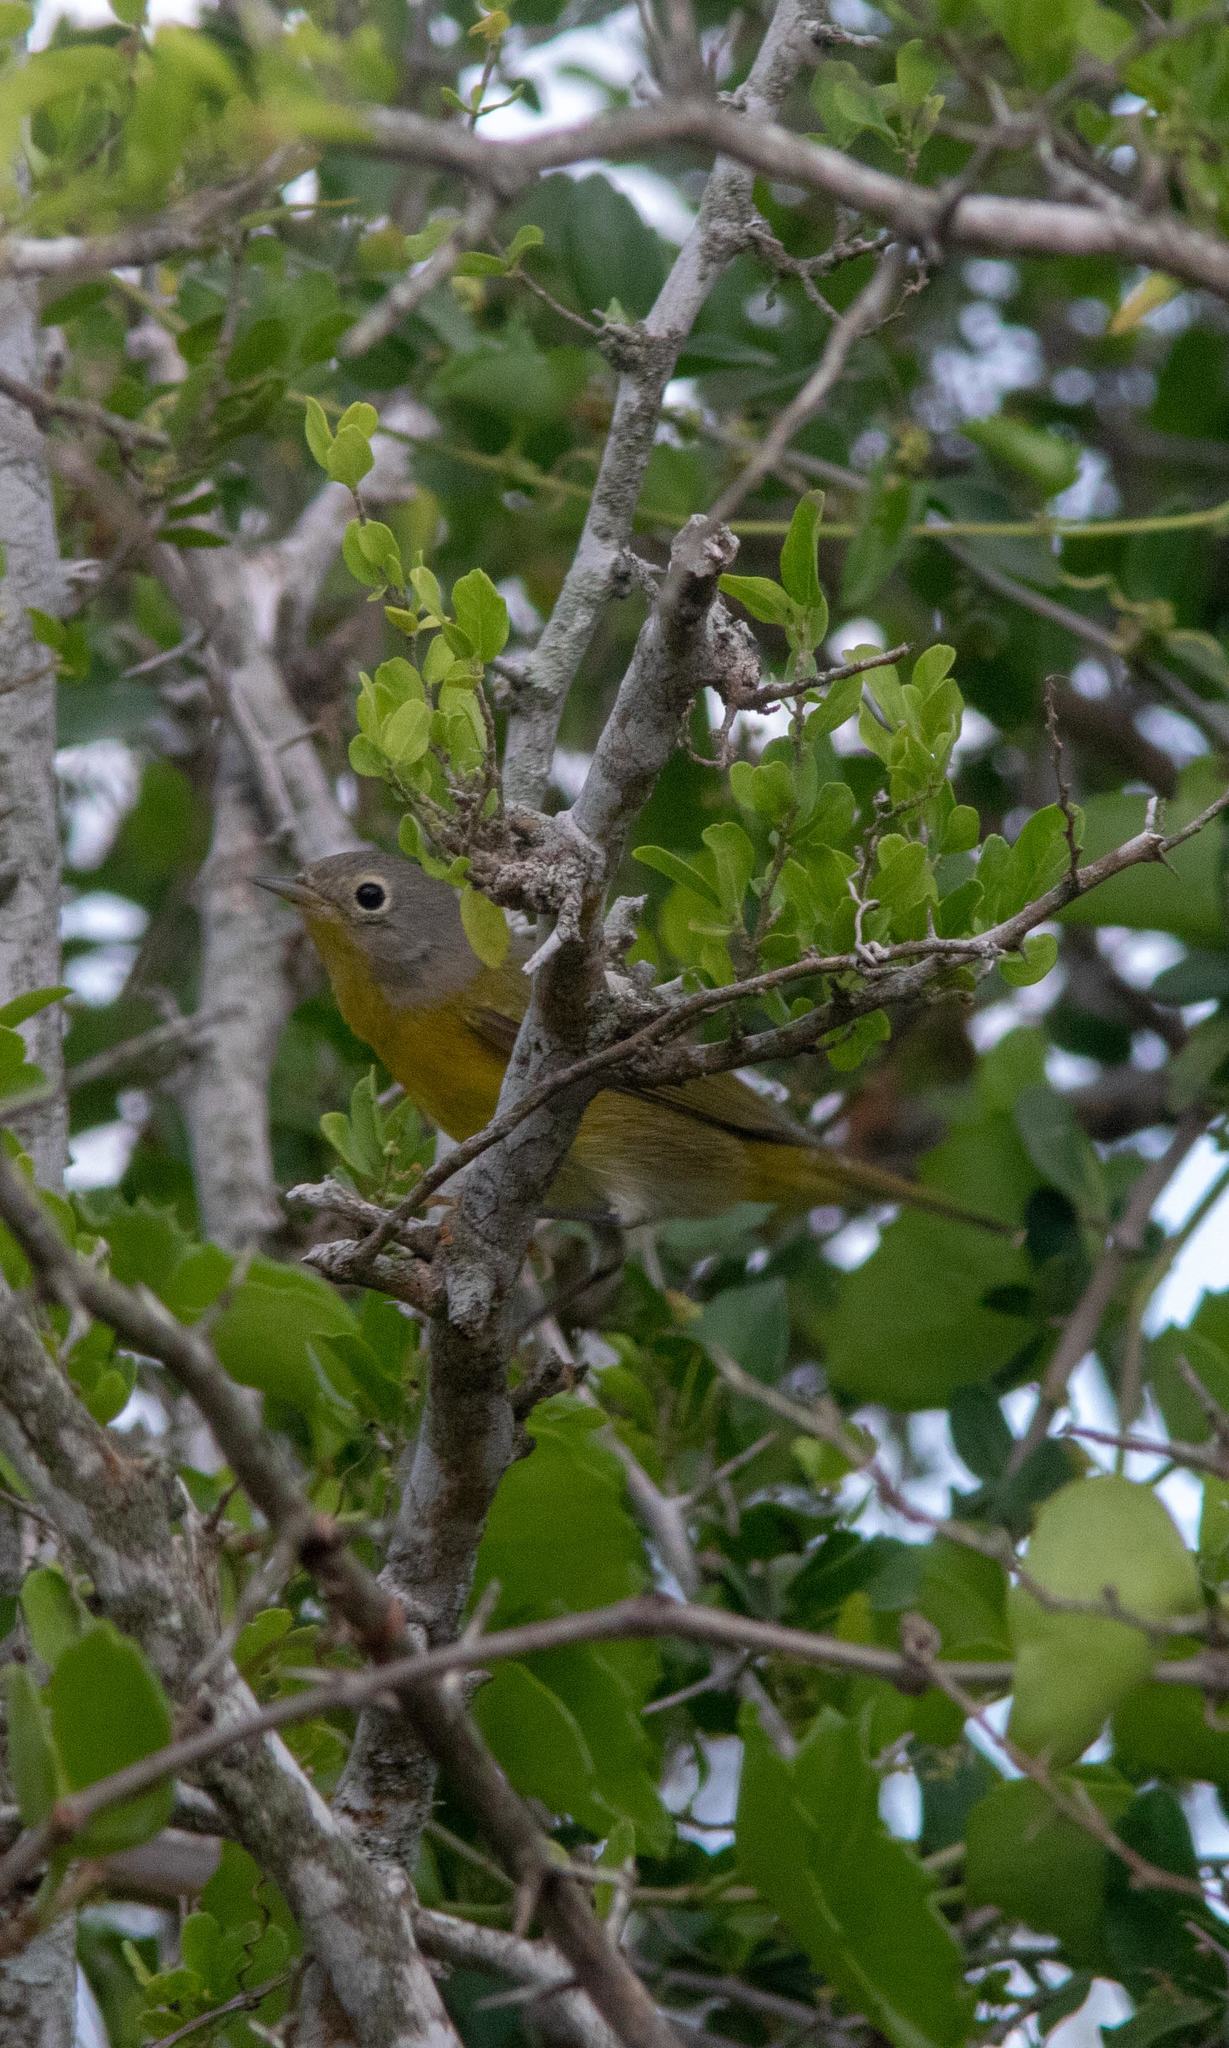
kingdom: Animalia
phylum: Chordata
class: Aves
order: Passeriformes
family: Parulidae
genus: Leiothlypis
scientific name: Leiothlypis ruficapilla
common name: Nashville warbler
